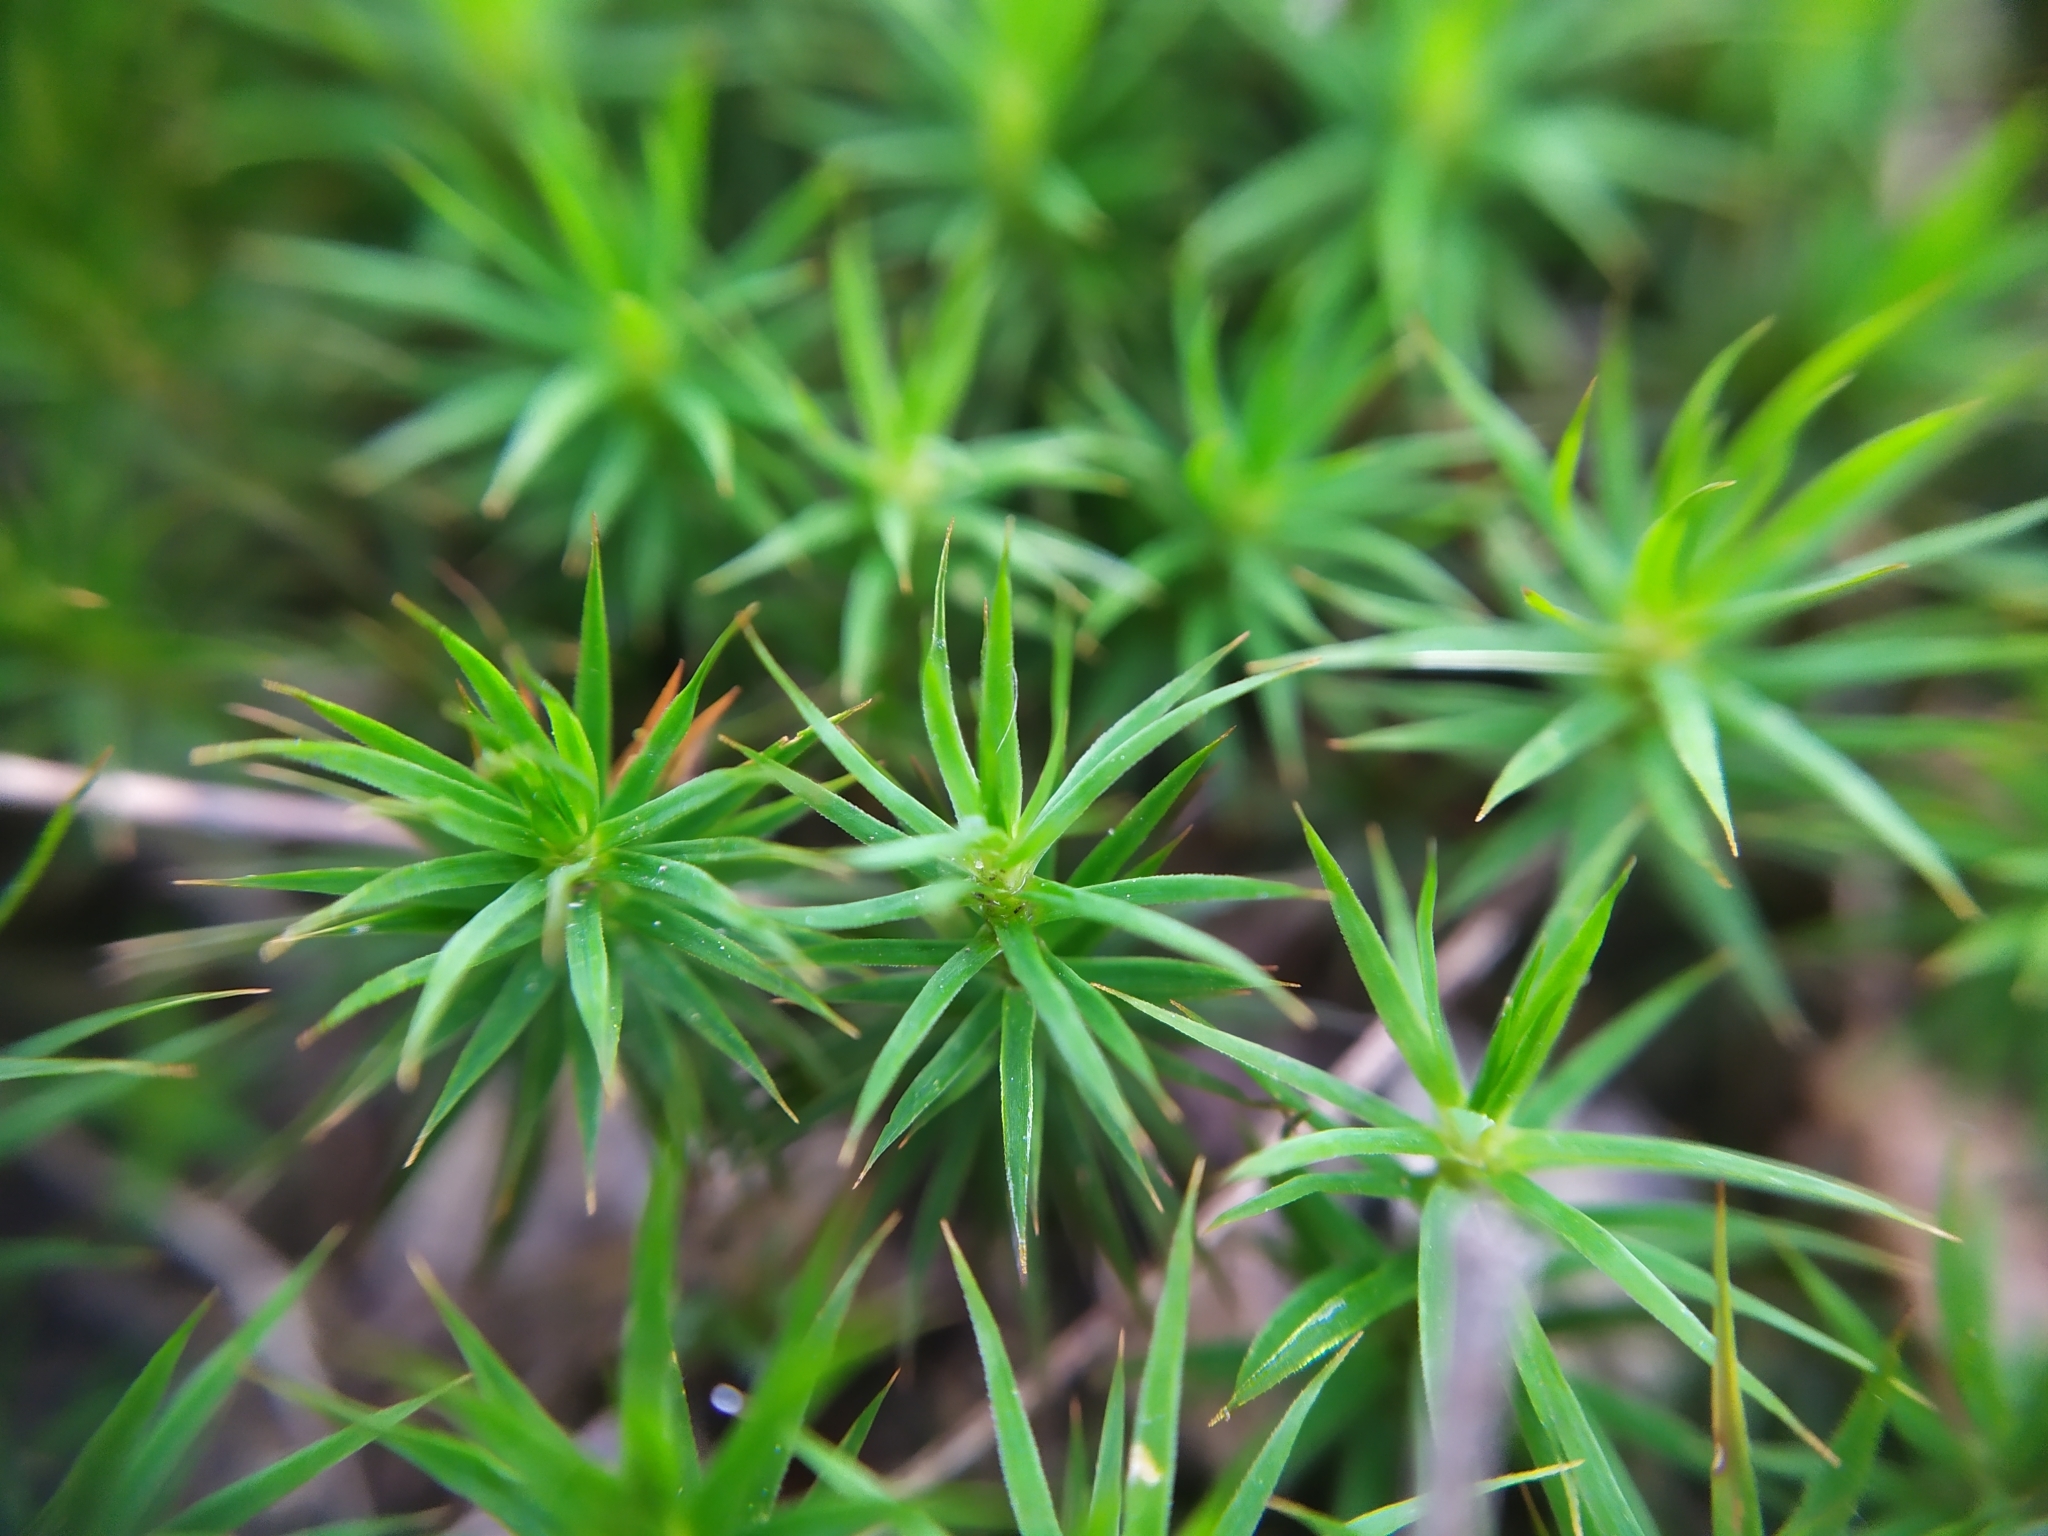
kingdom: Plantae
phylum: Bryophyta
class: Polytrichopsida
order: Polytrichales
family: Polytrichaceae
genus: Polytrichum
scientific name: Polytrichum formosum
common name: Bank haircap moss
